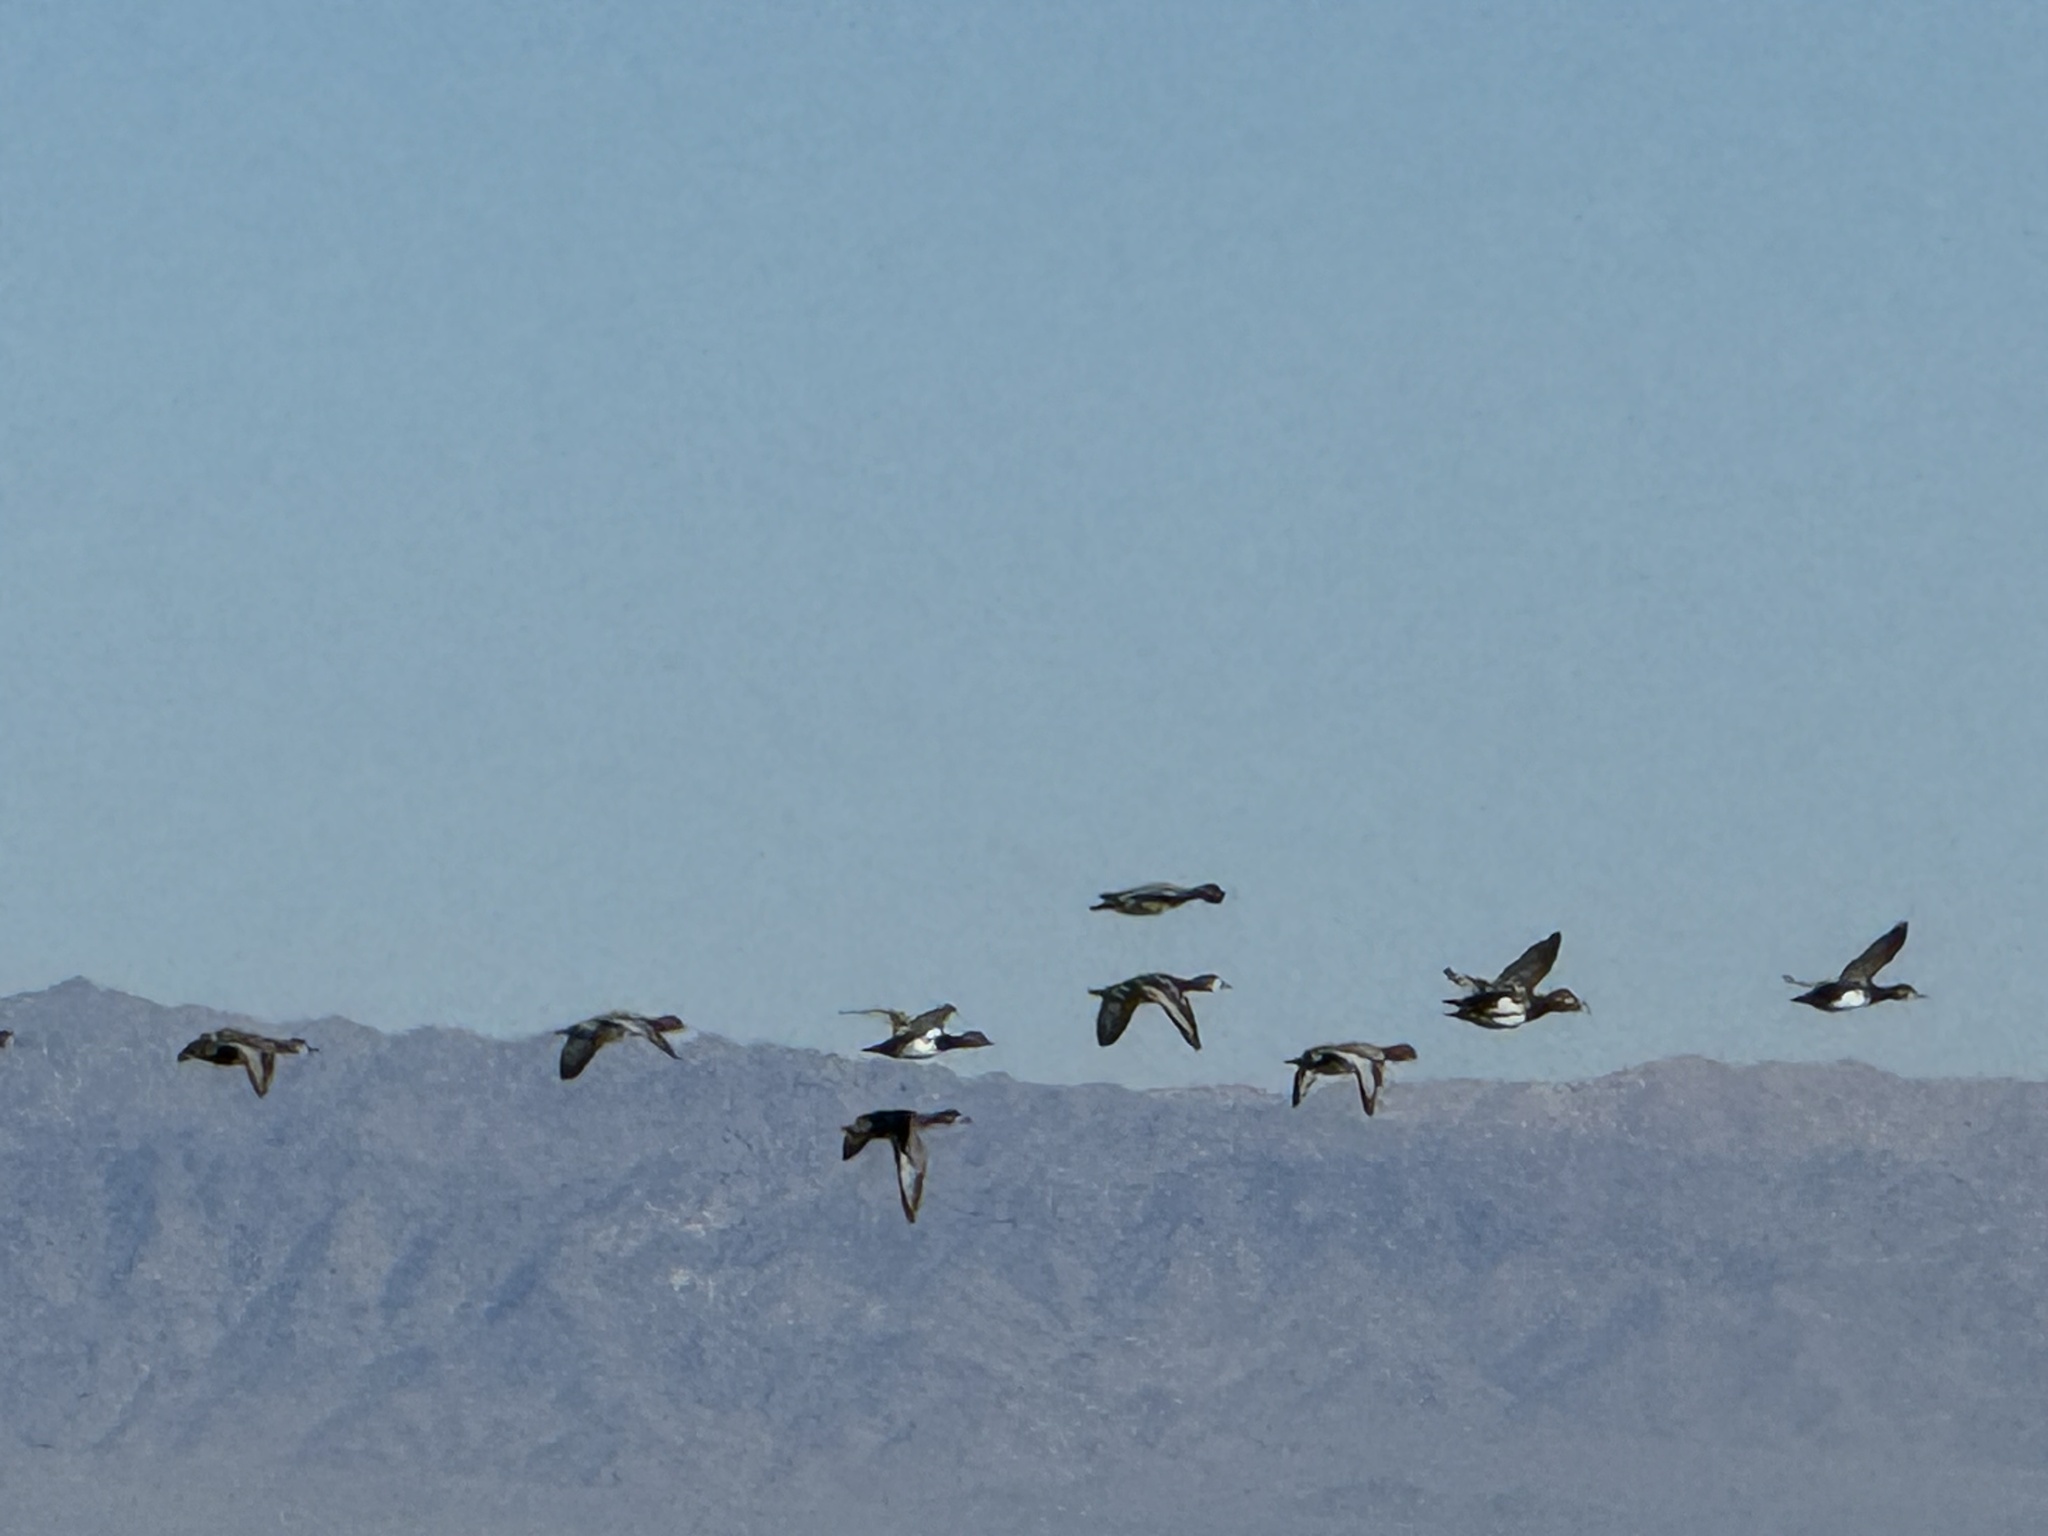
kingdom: Animalia
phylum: Chordata
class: Aves
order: Anseriformes
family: Anatidae
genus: Aythya
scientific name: Aythya americana
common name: Redhead
